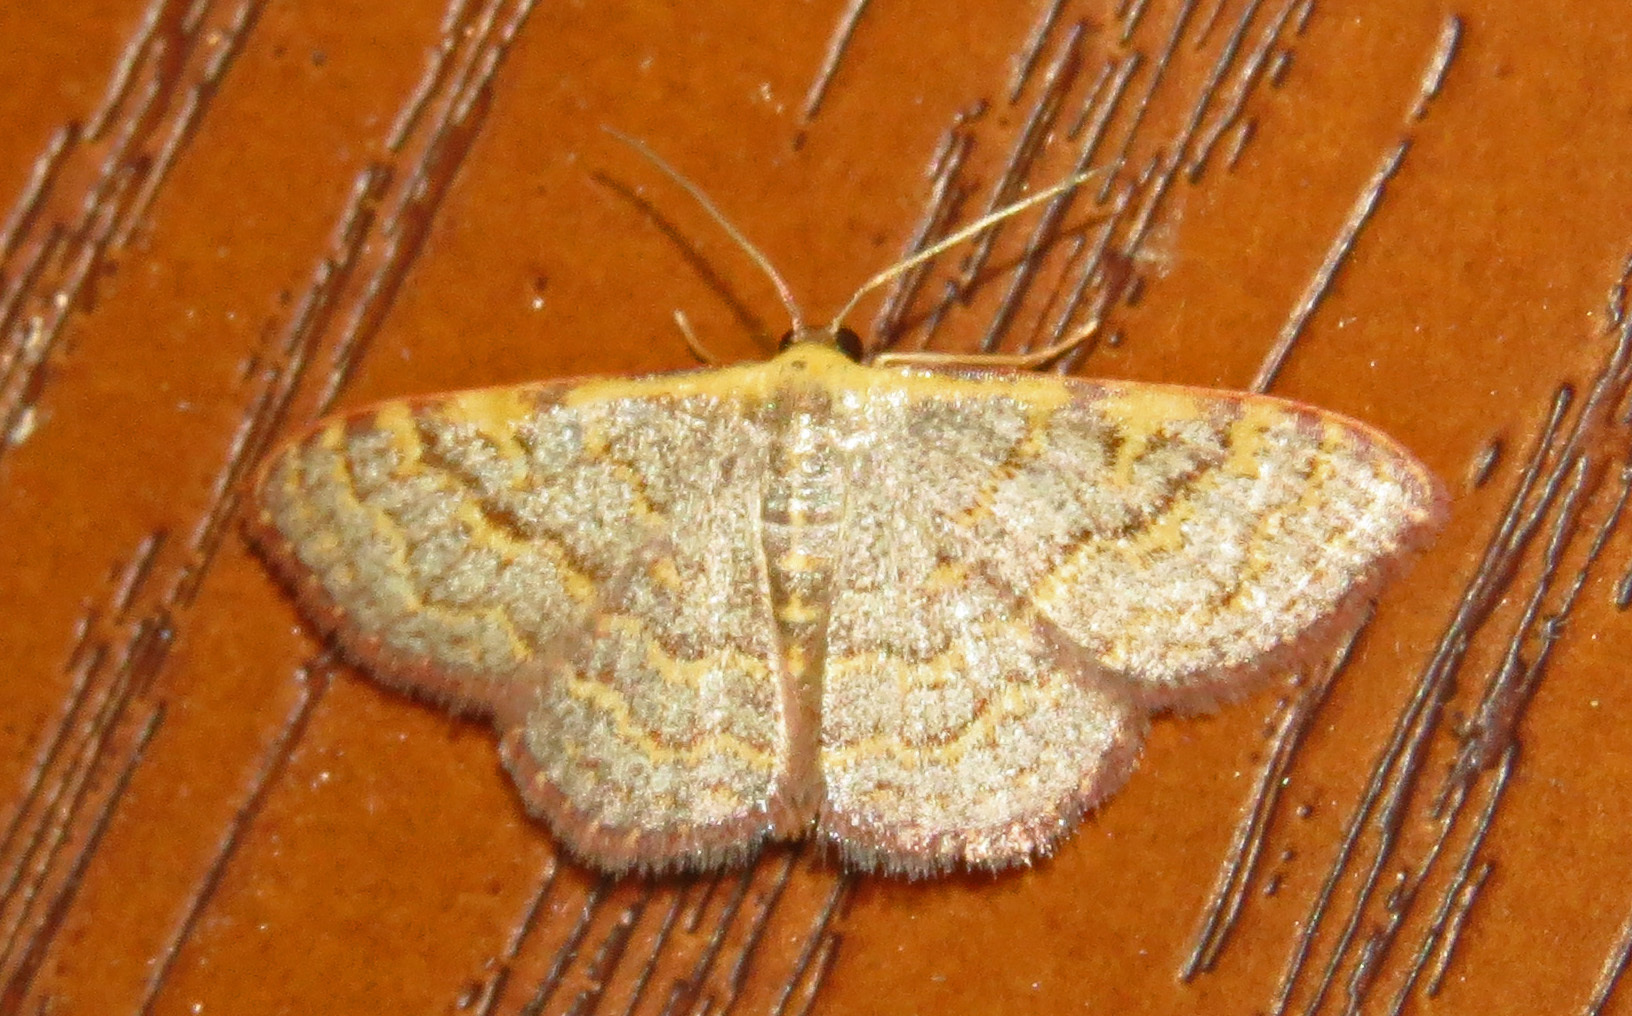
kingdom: Animalia
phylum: Arthropoda
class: Insecta
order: Lepidoptera
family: Geometridae
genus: Leptostales
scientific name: Leptostales pannaria
